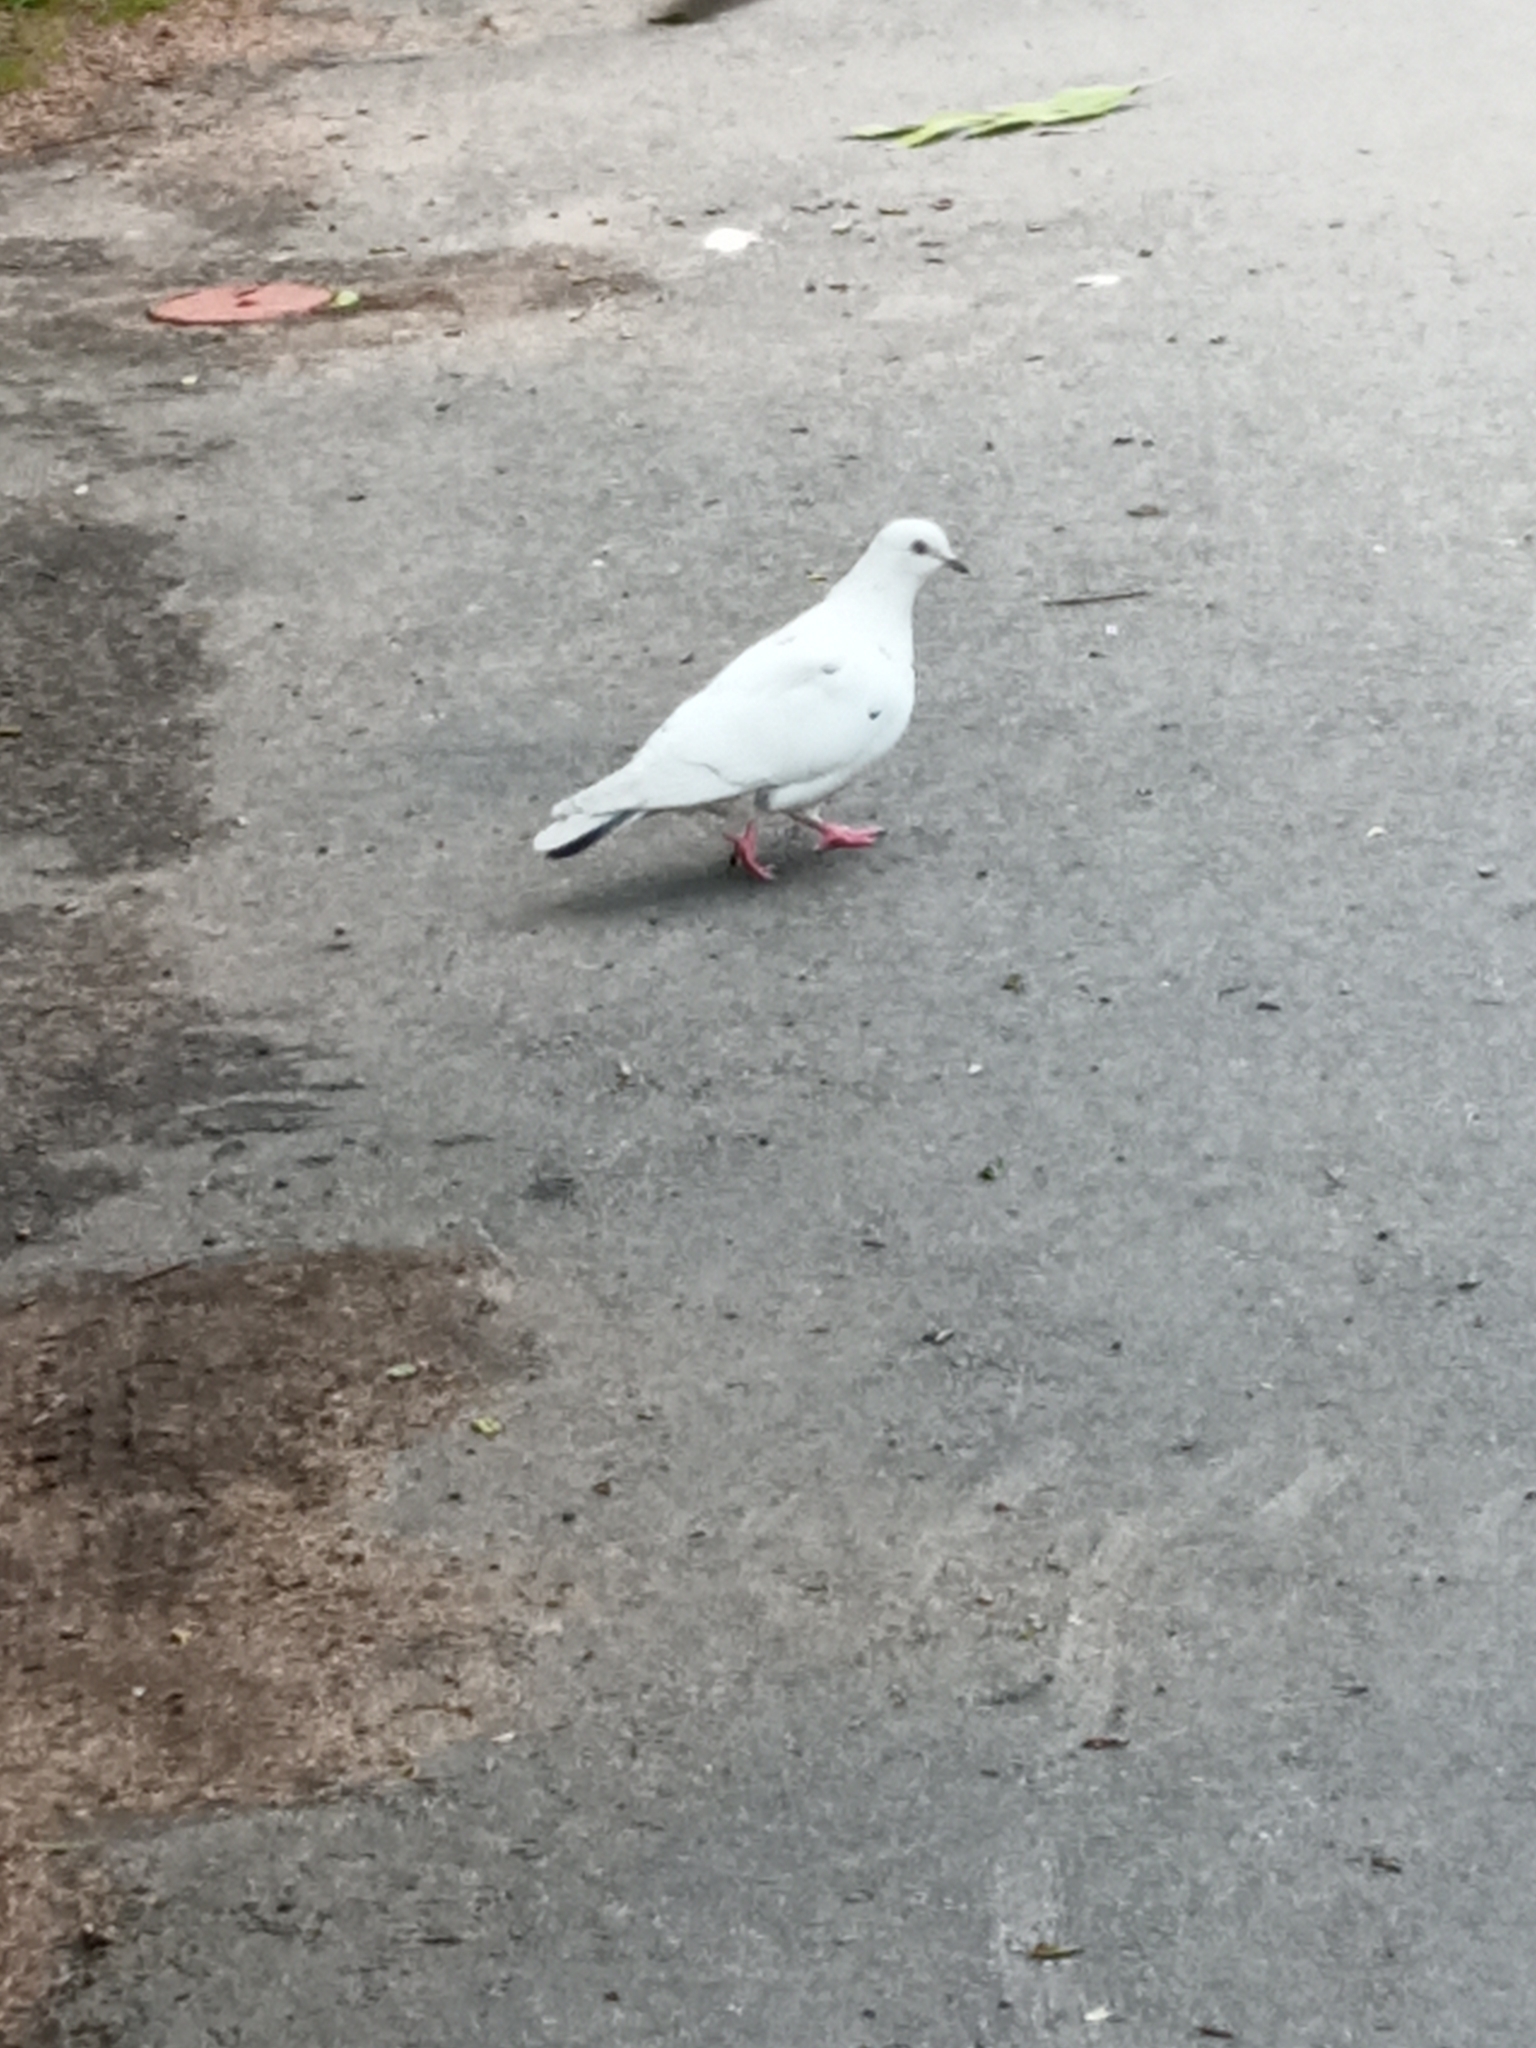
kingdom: Animalia
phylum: Chordata
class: Aves
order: Columbiformes
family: Columbidae
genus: Columba
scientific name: Columba livia
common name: Rock pigeon
